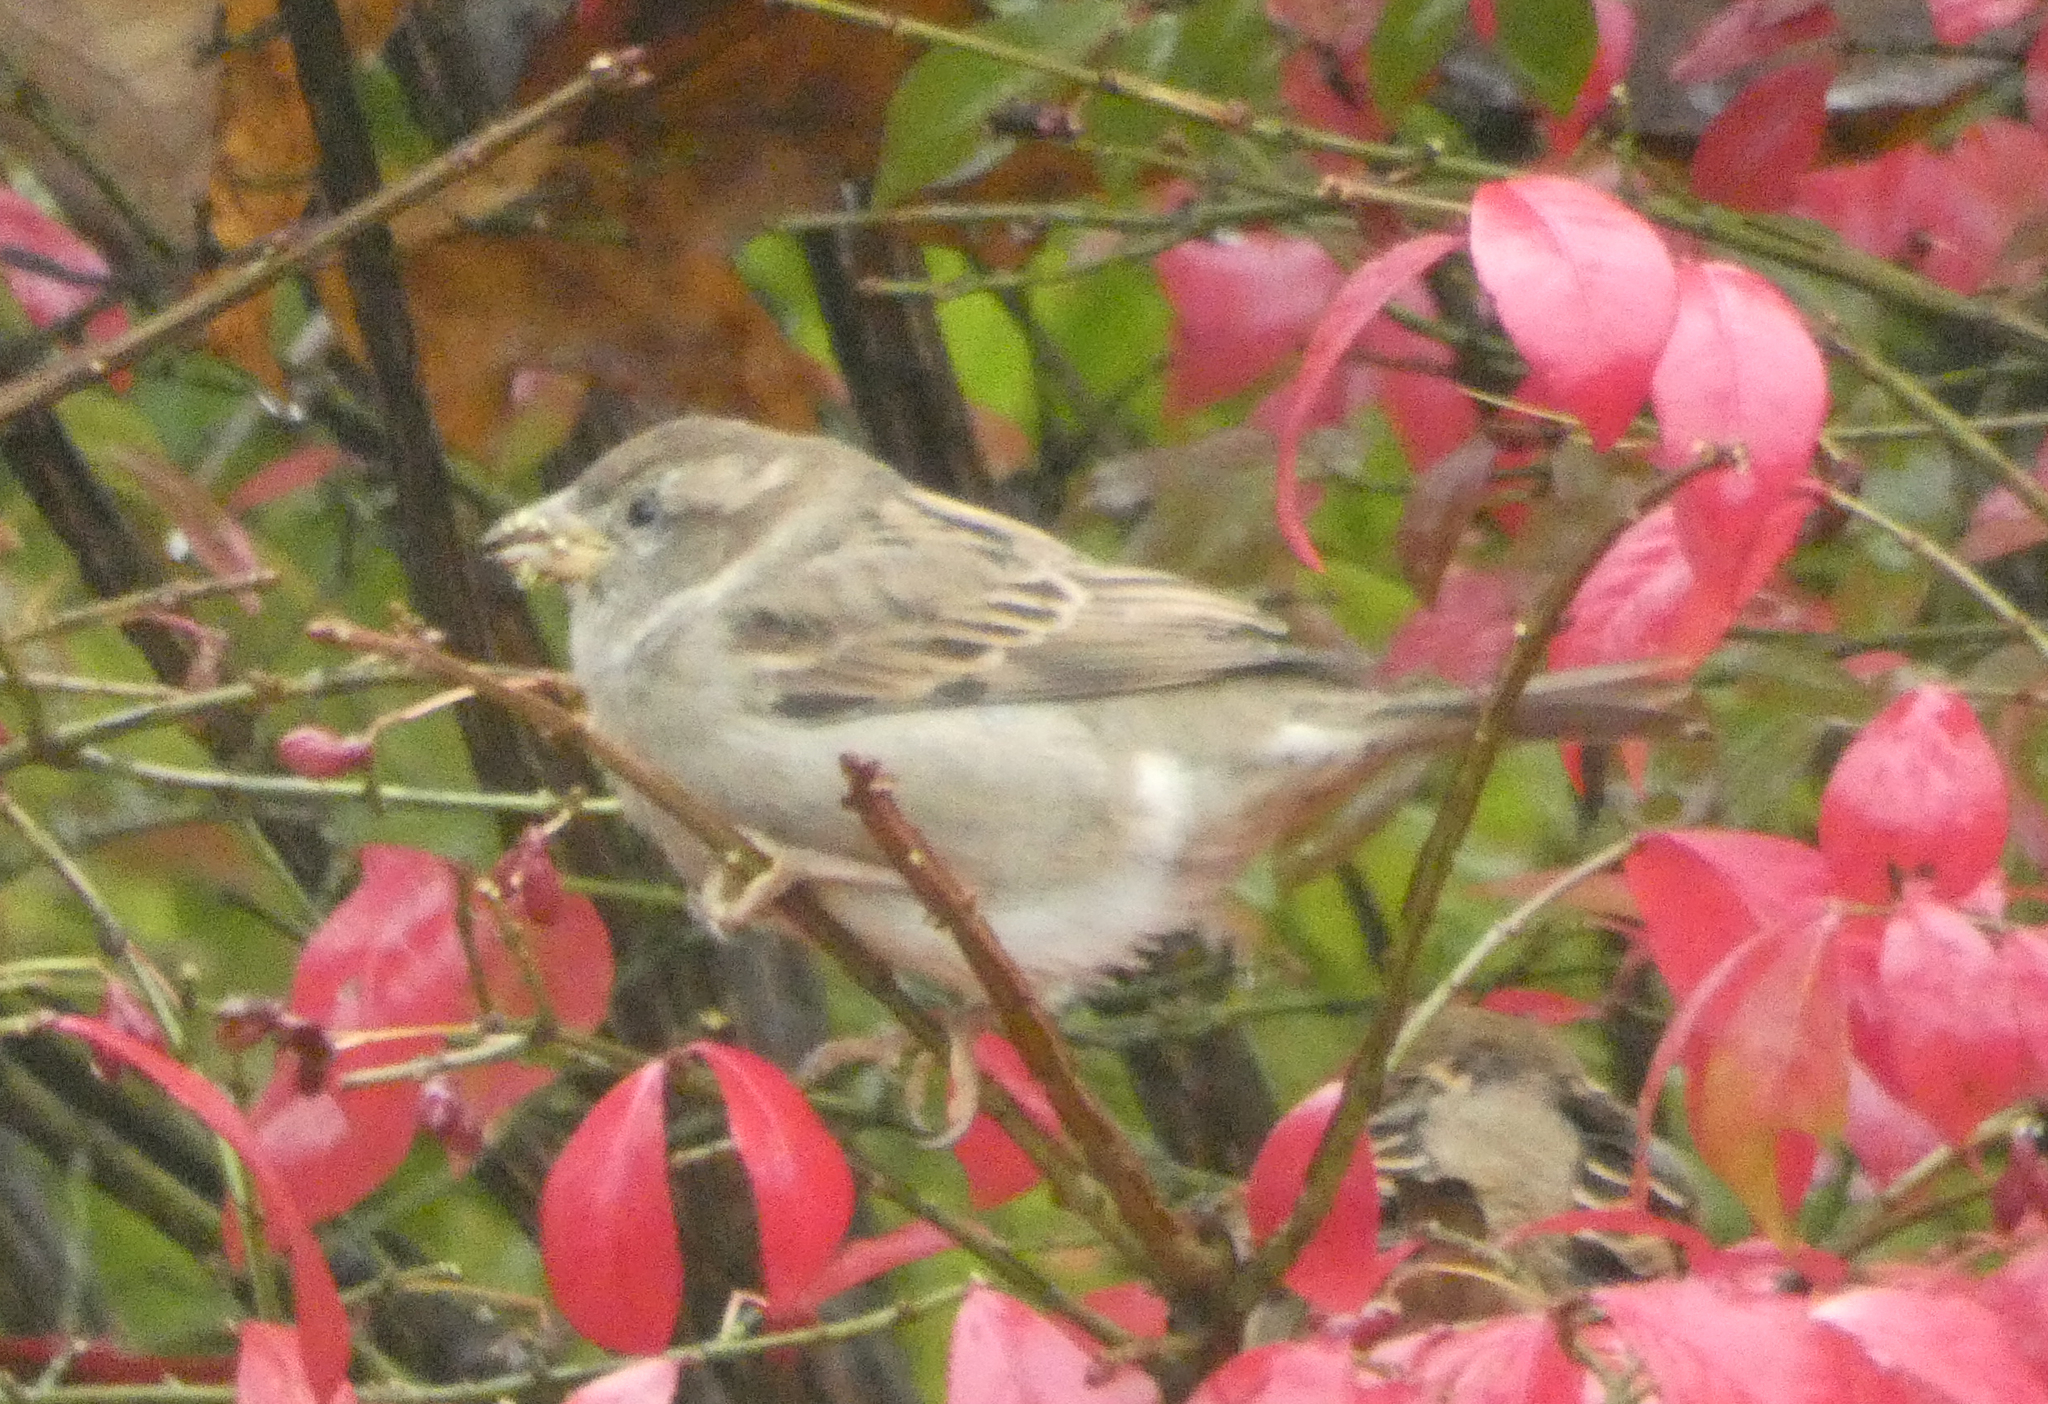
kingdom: Animalia
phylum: Chordata
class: Aves
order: Passeriformes
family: Passeridae
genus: Passer
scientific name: Passer domesticus
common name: House sparrow
